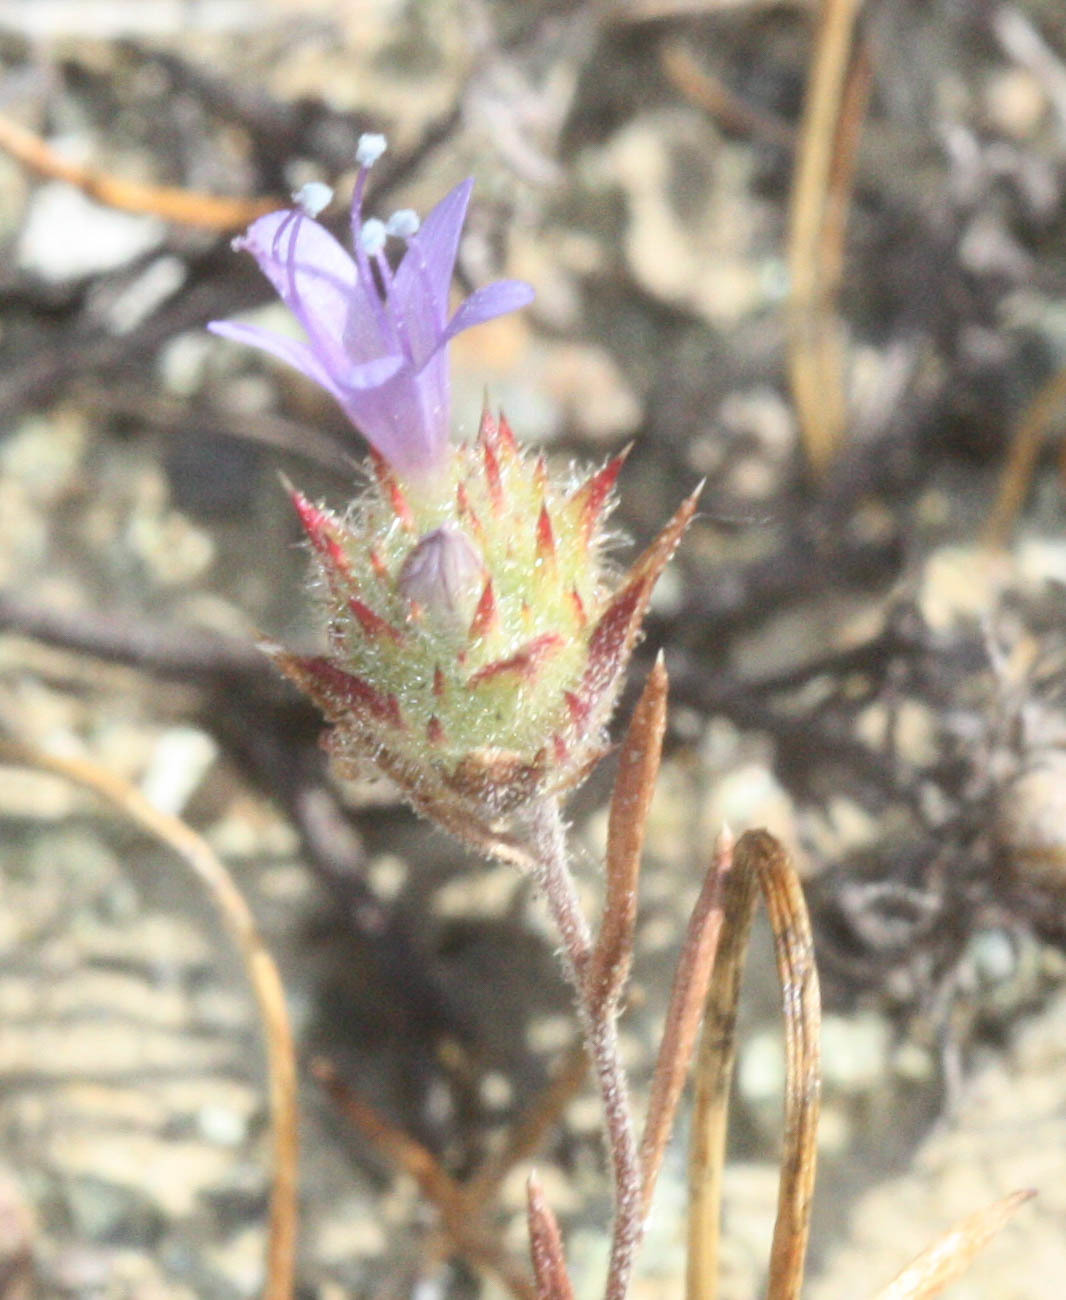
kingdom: Plantae
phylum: Tracheophyta
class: Magnoliopsida
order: Ericales
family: Polemoniaceae
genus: Navarretia
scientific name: Navarretia heterodoxa
